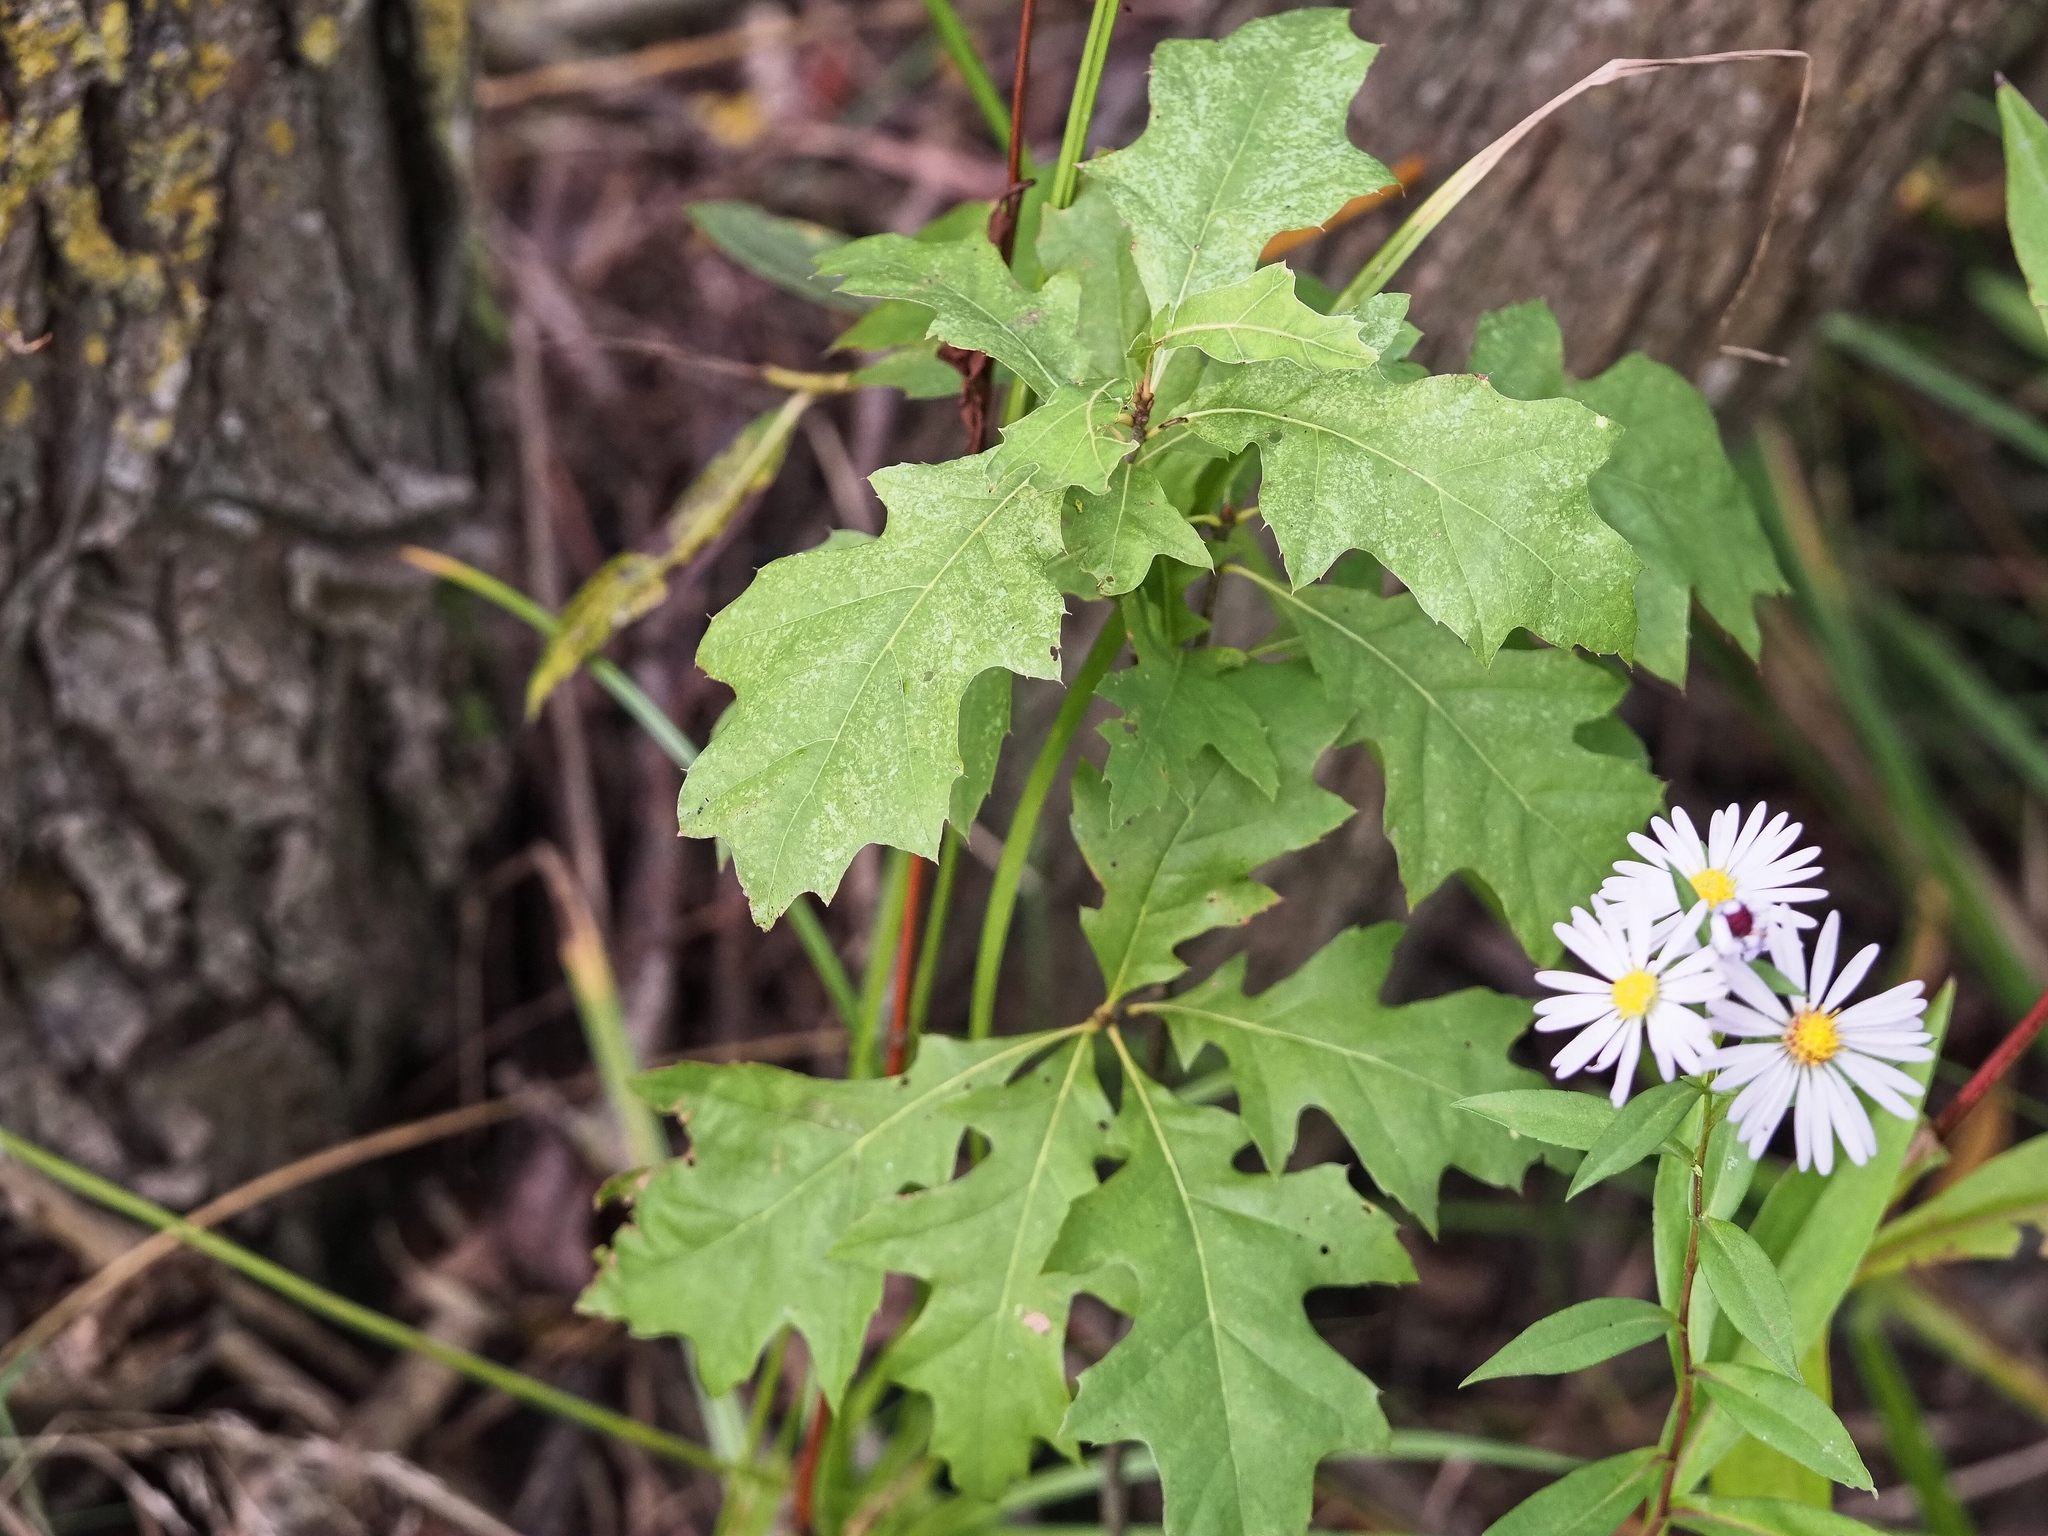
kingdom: Plantae
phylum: Tracheophyta
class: Magnoliopsida
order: Fagales
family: Fagaceae
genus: Quercus
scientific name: Quercus cerris
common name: Turkey oak
